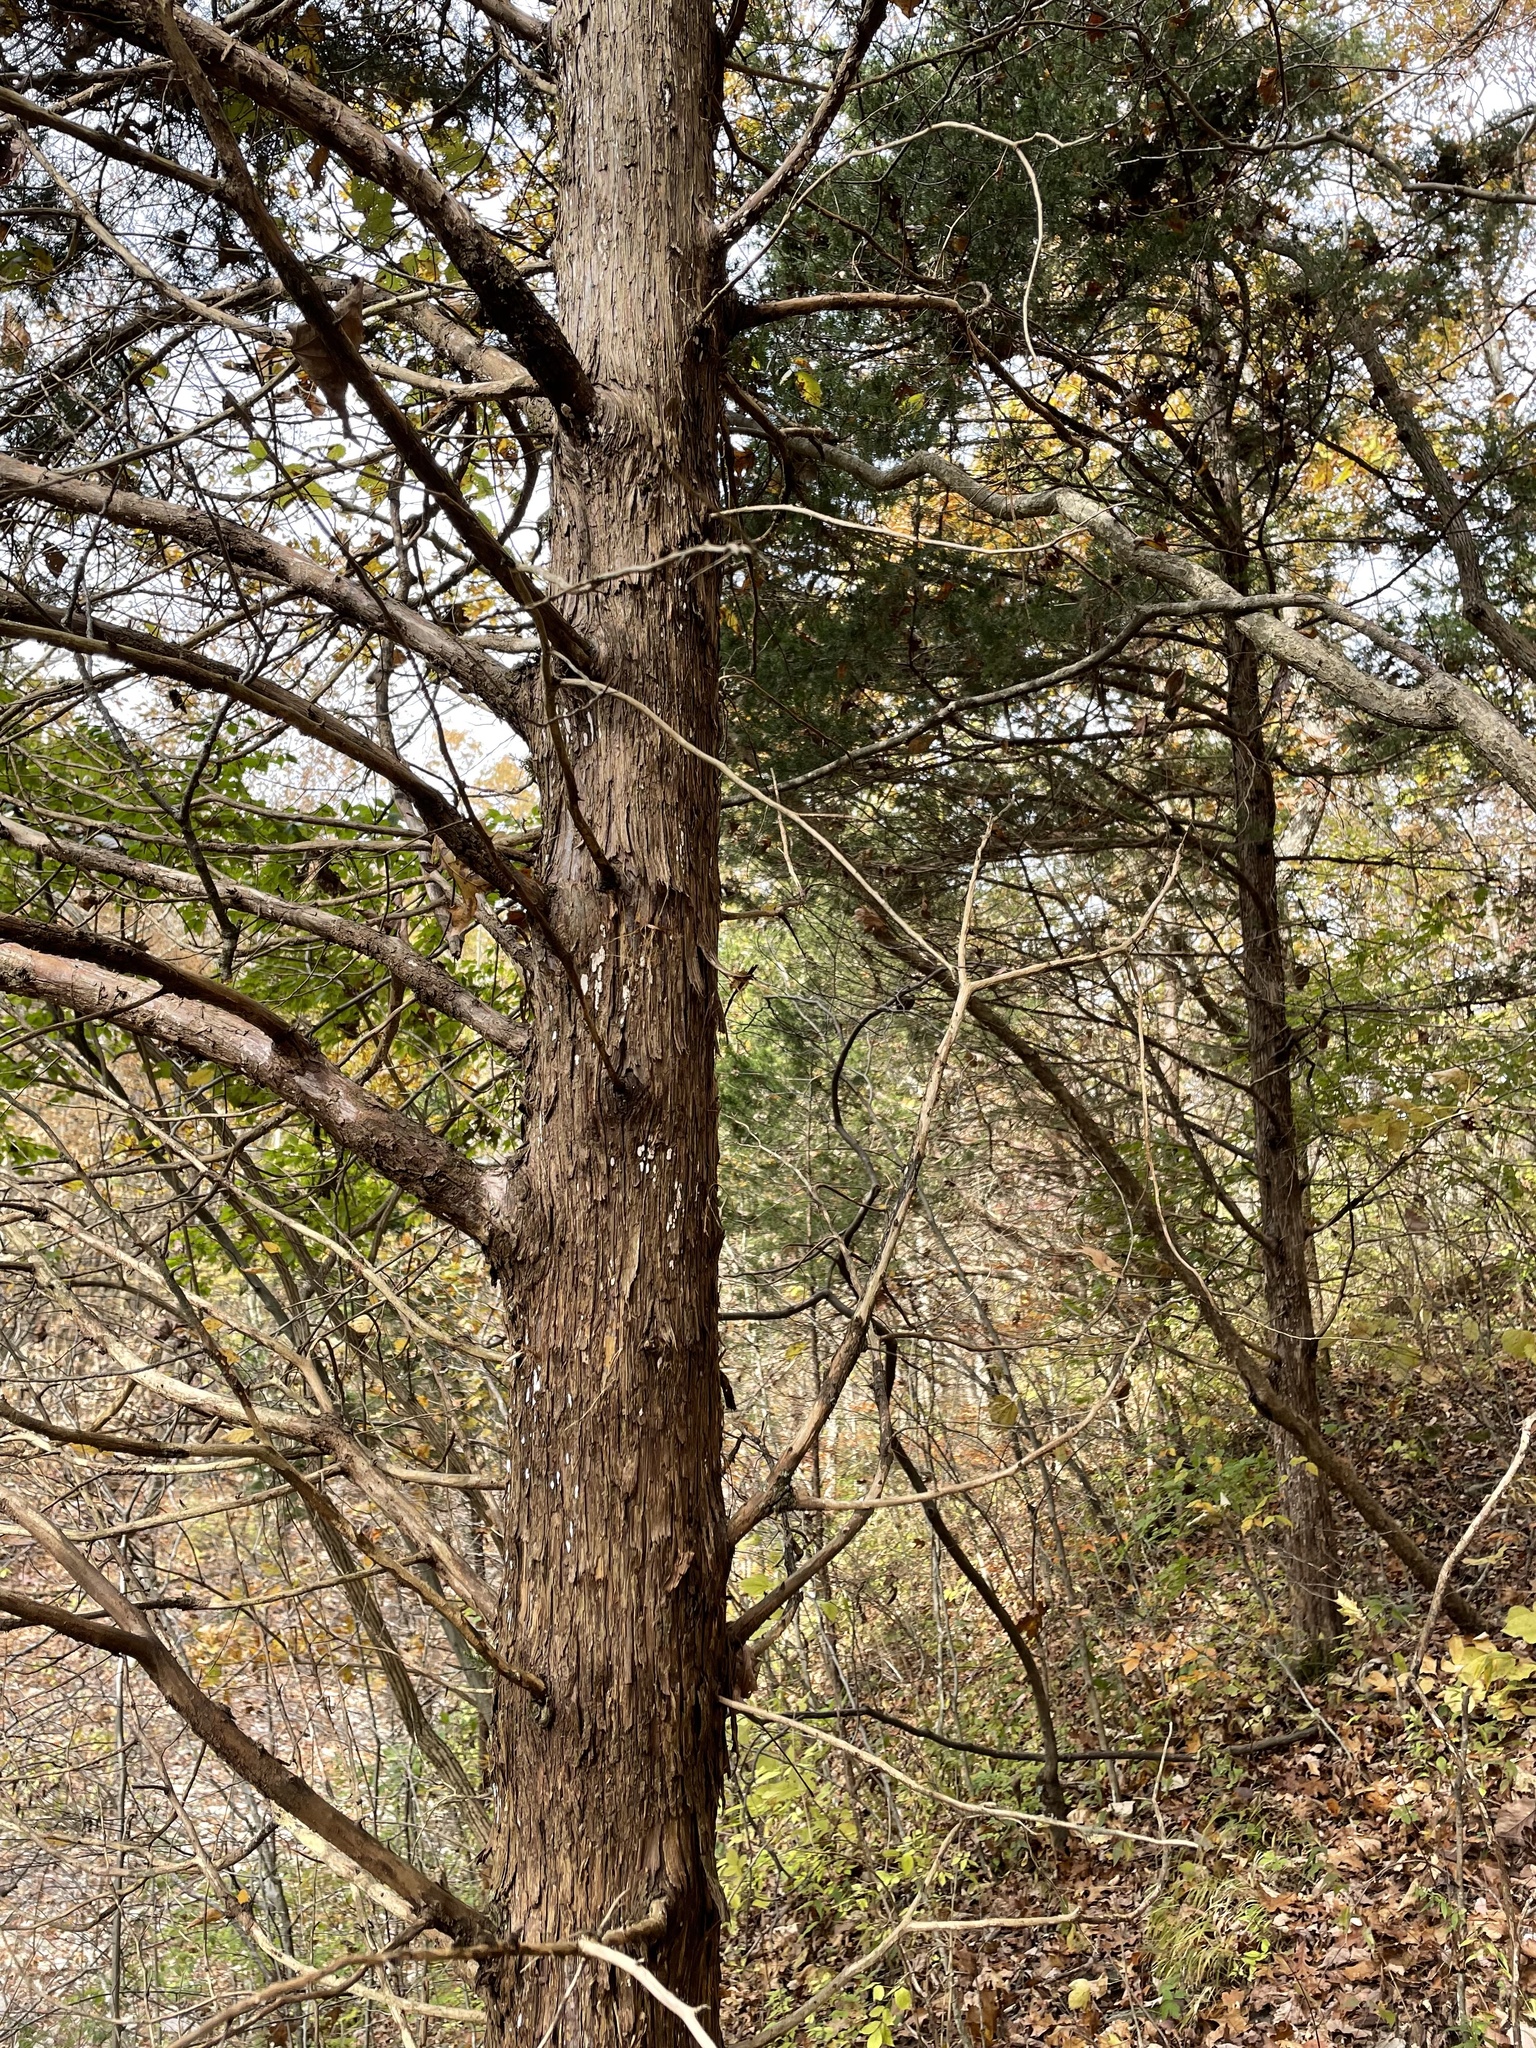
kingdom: Plantae
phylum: Tracheophyta
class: Pinopsida
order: Pinales
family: Cupressaceae
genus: Juniperus
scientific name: Juniperus virginiana
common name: Red juniper
